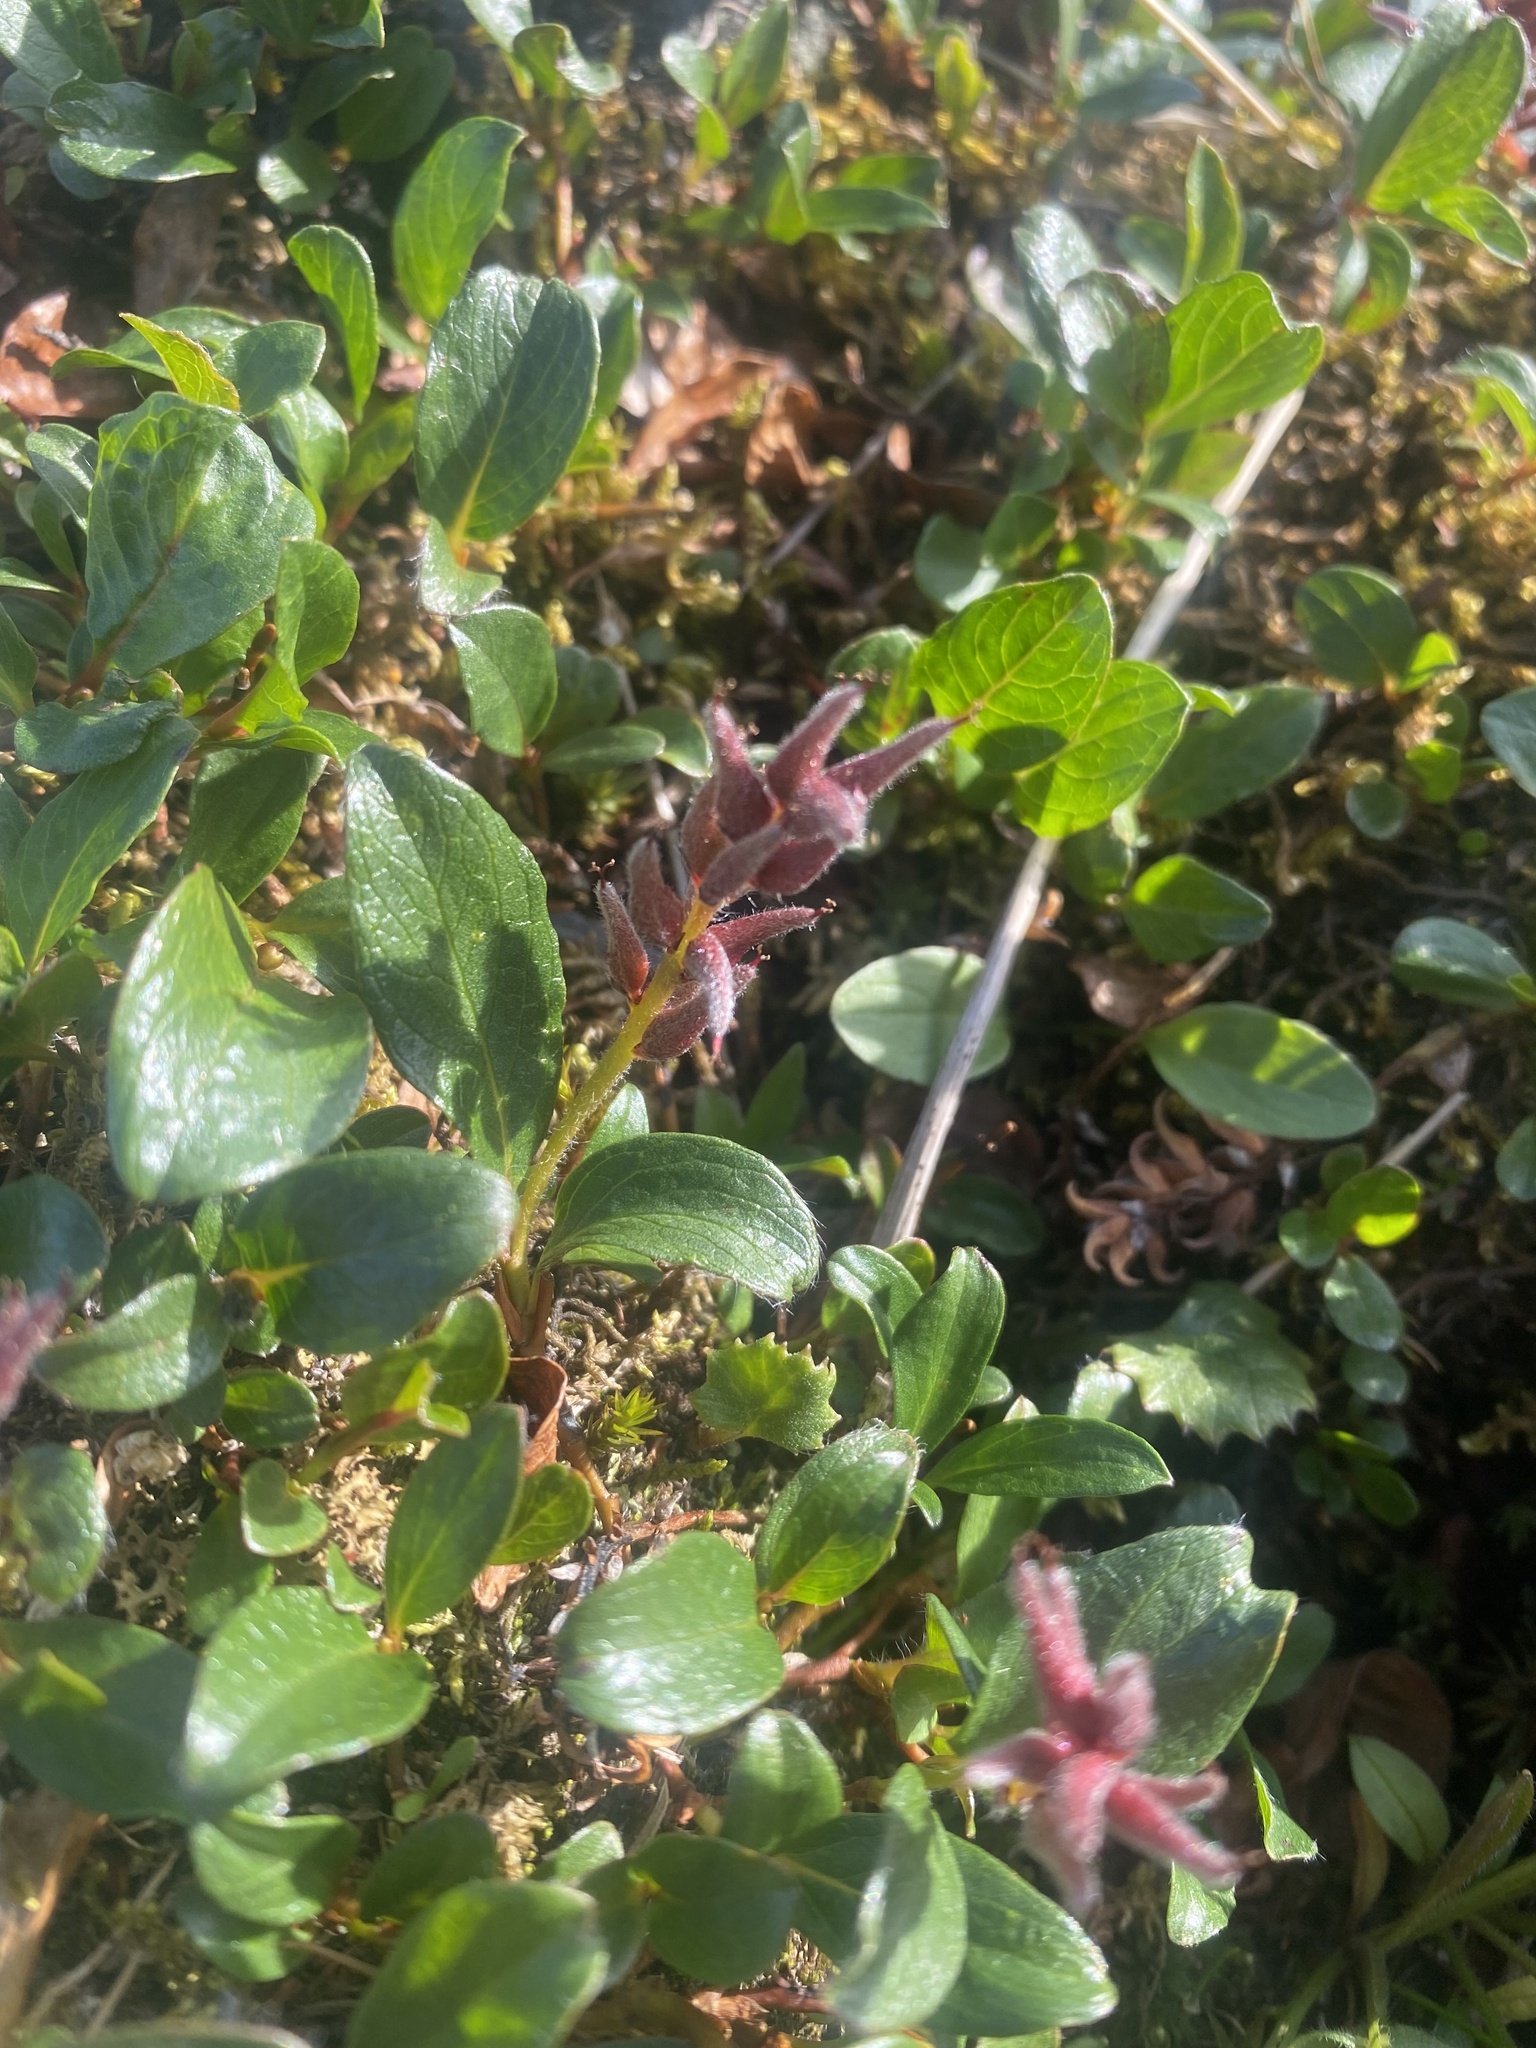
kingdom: Plantae
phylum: Tracheophyta
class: Magnoliopsida
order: Malpighiales
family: Salicaceae
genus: Salix
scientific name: Salix polaris
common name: Polar willow
